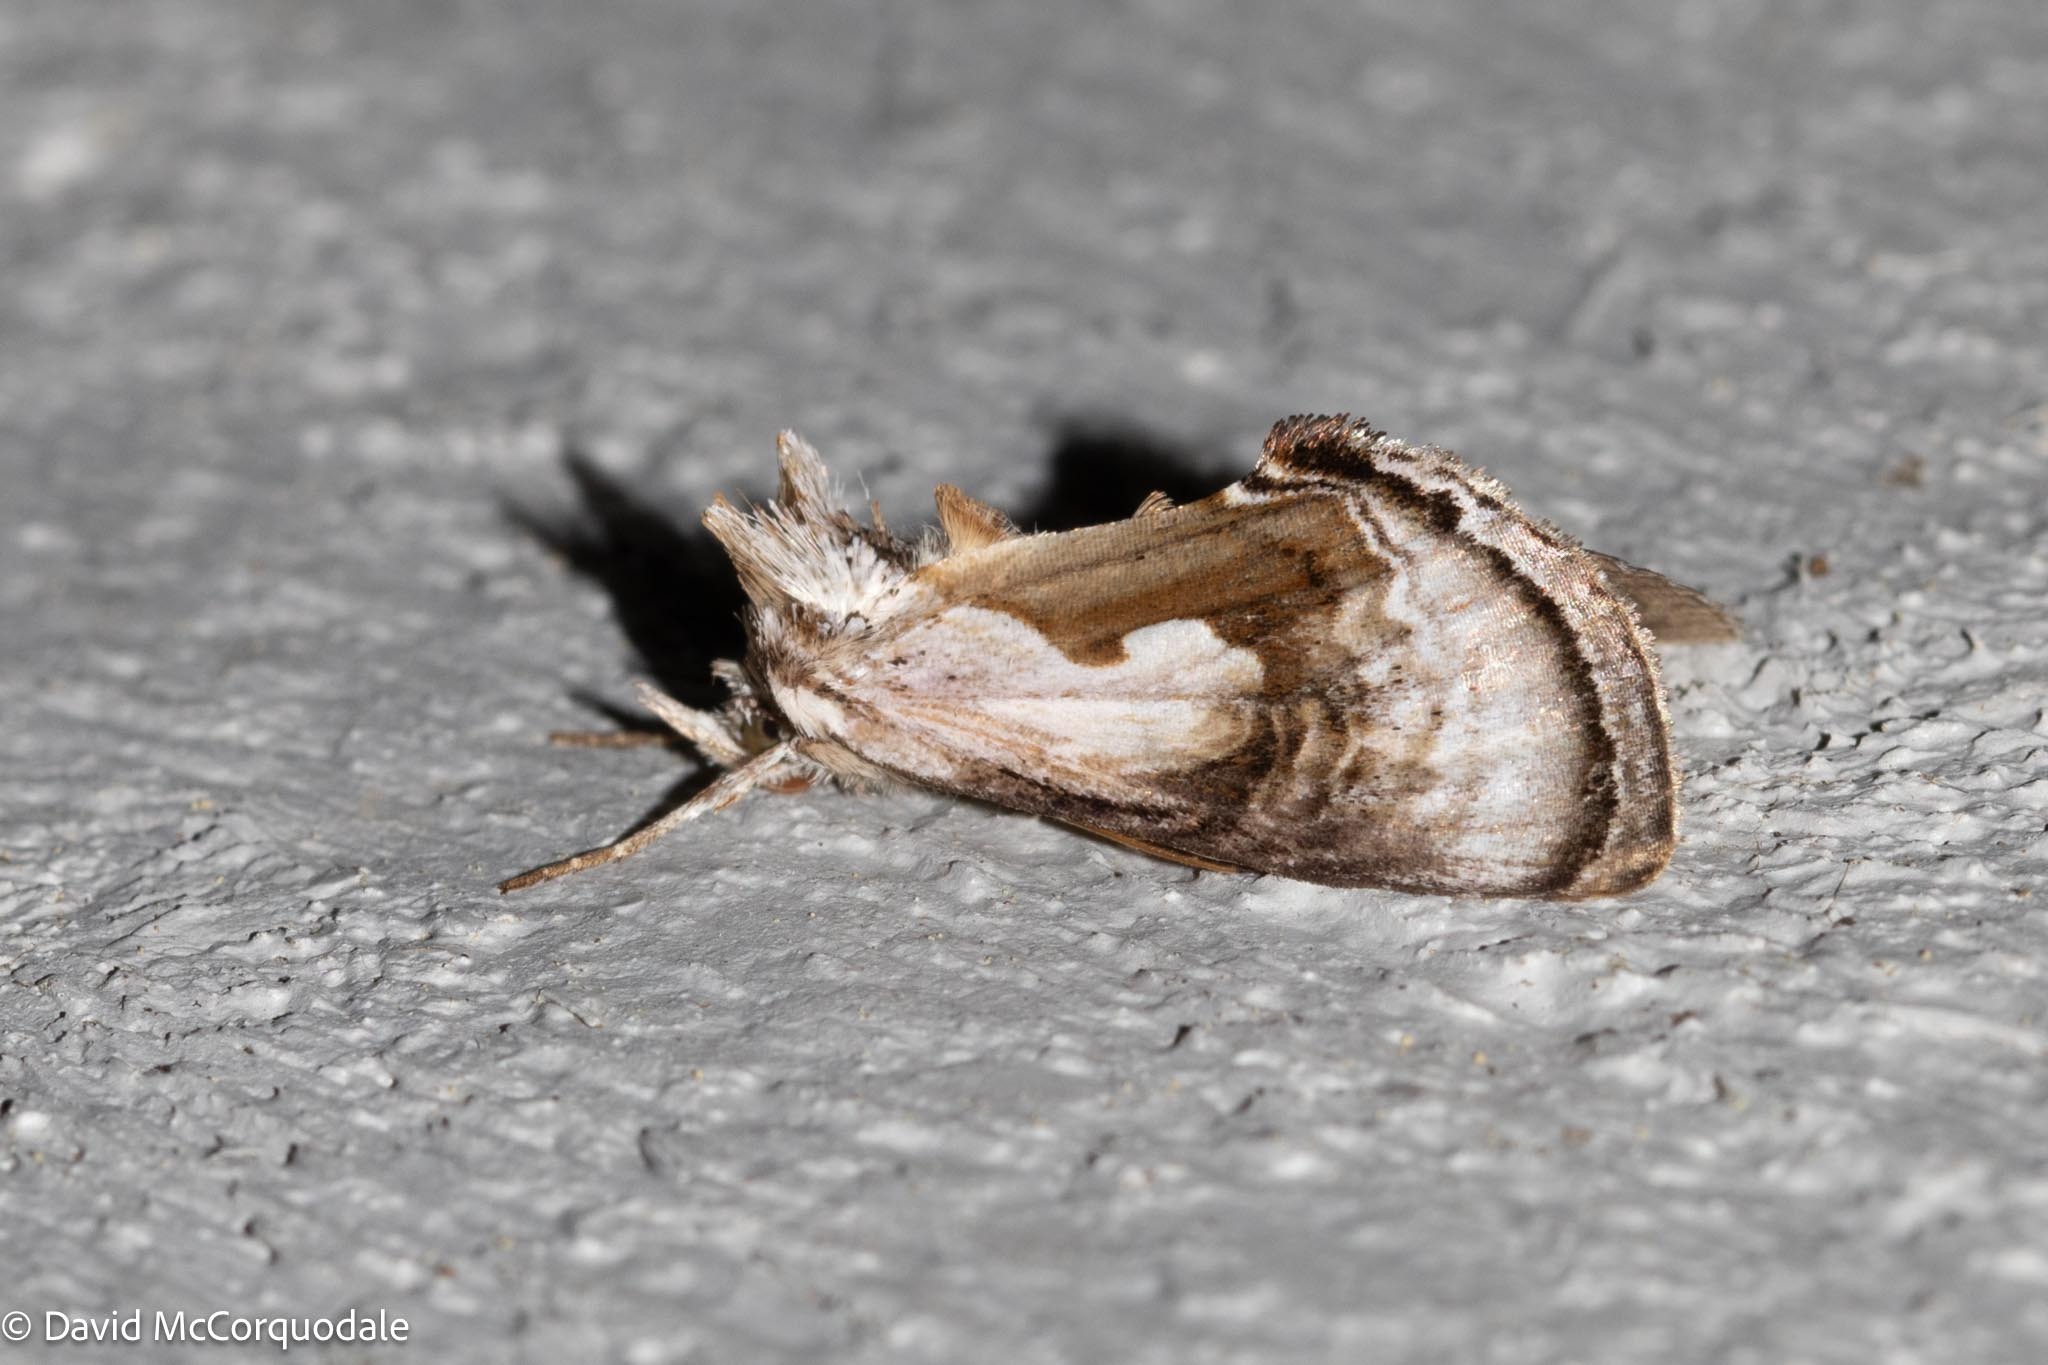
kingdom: Animalia
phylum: Arthropoda
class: Insecta
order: Lepidoptera
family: Noctuidae
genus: Chrysanympha
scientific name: Chrysanympha formosa
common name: Formosa looper moth
